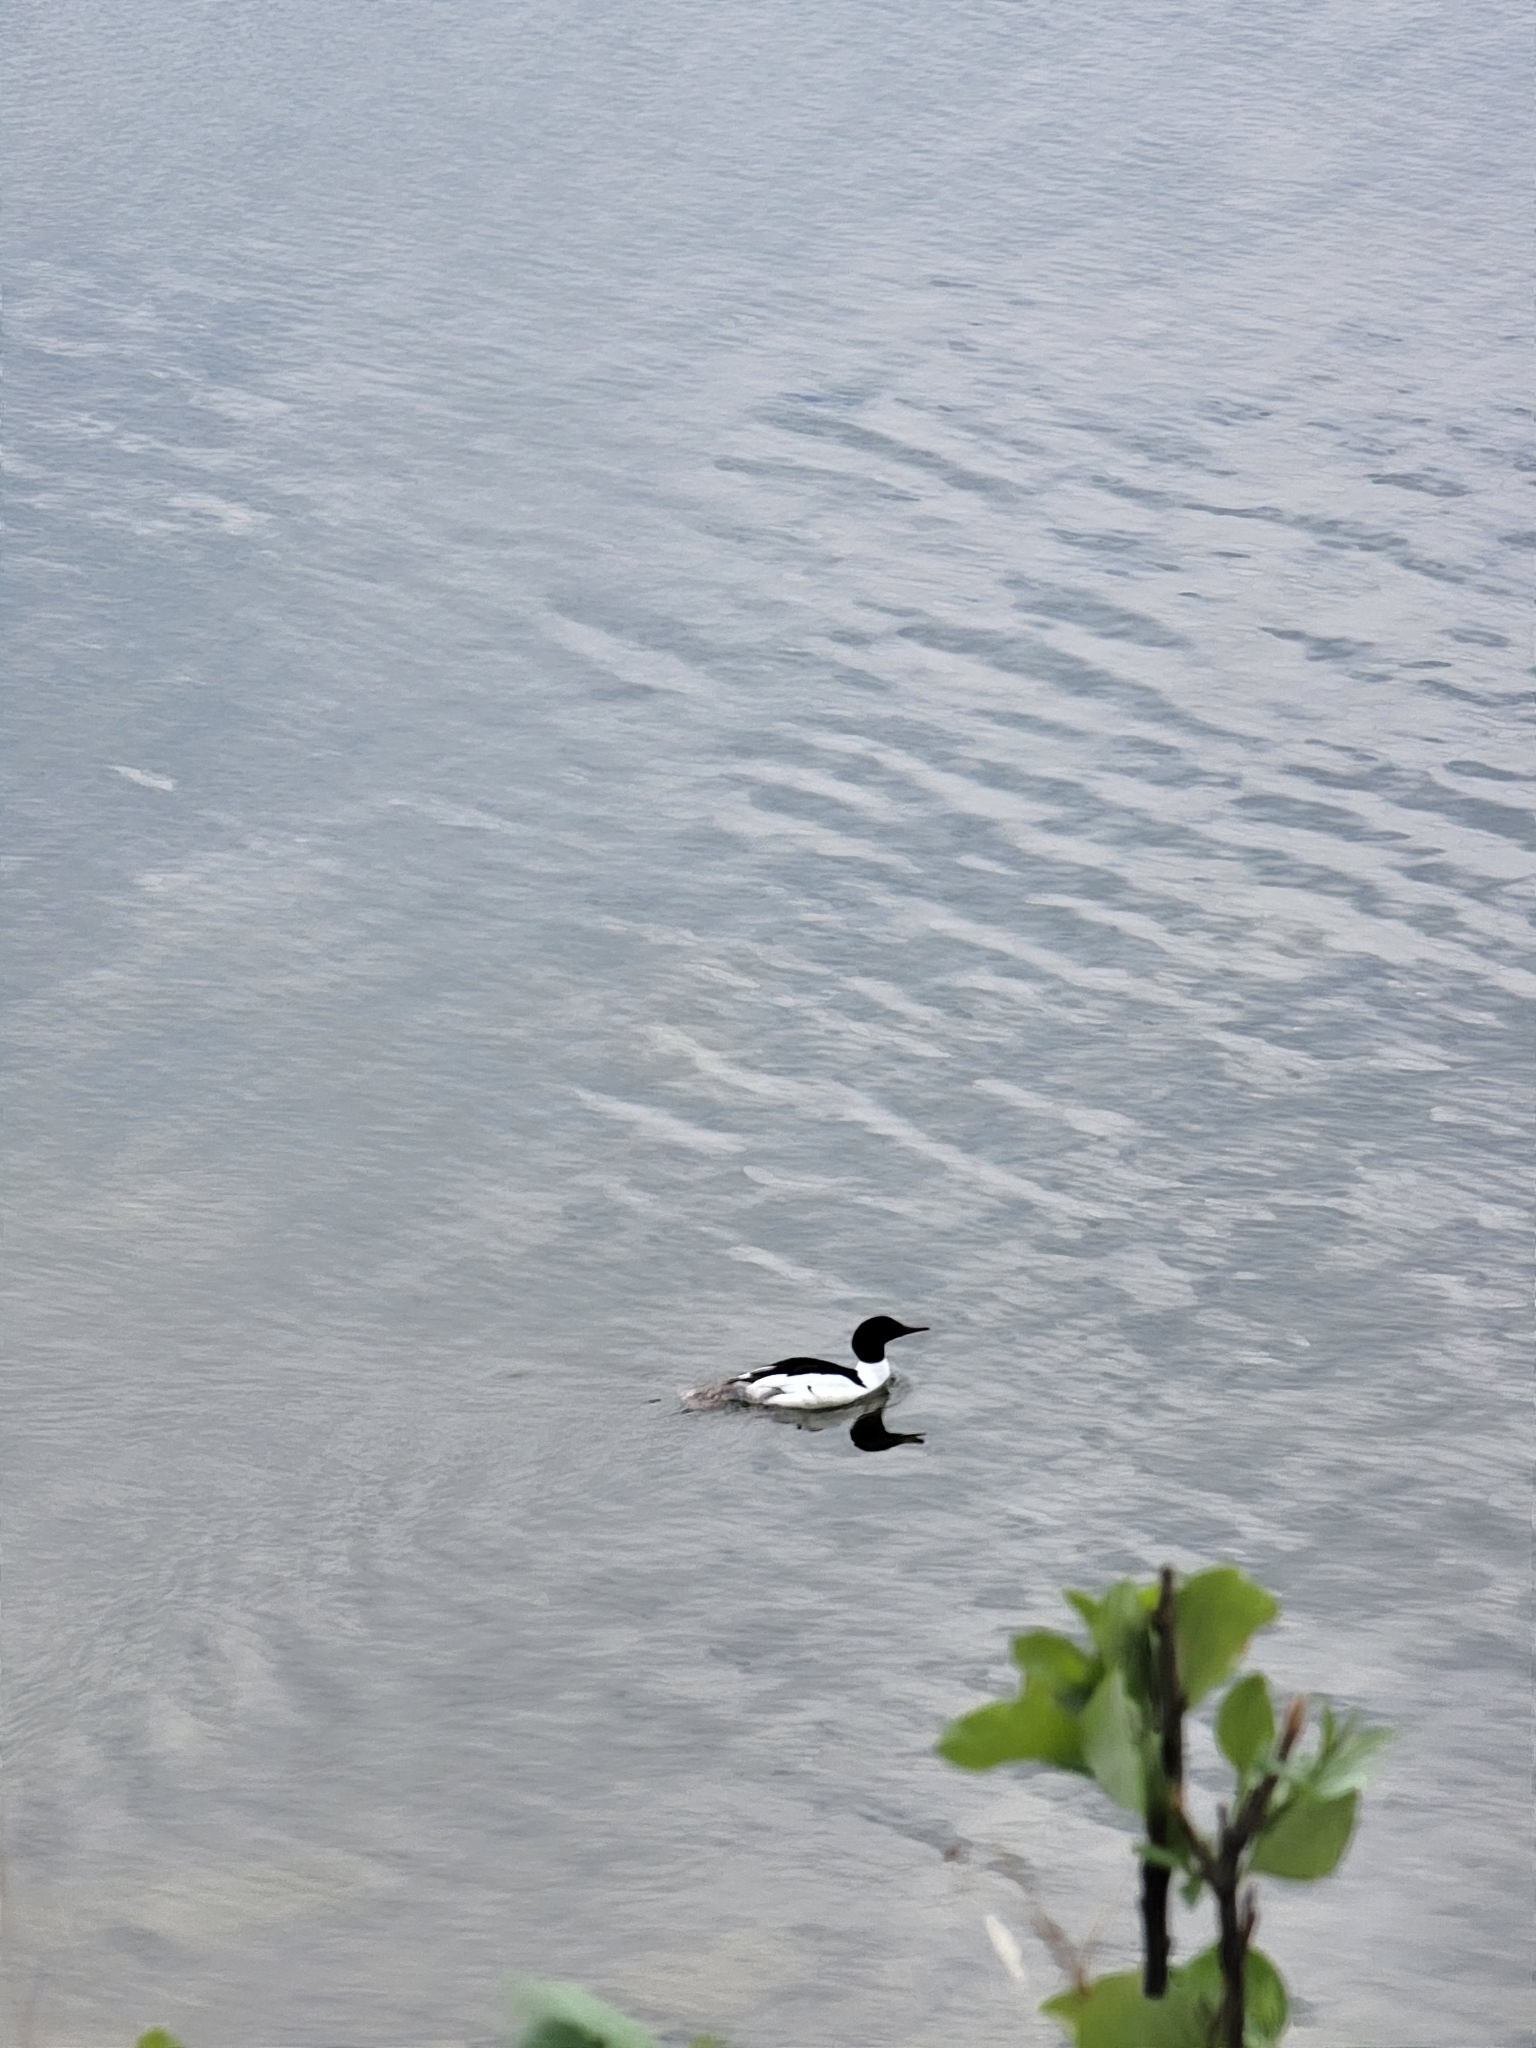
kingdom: Animalia
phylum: Chordata
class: Aves
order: Anseriformes
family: Anatidae
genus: Mergus
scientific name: Mergus merganser
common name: Common merganser
